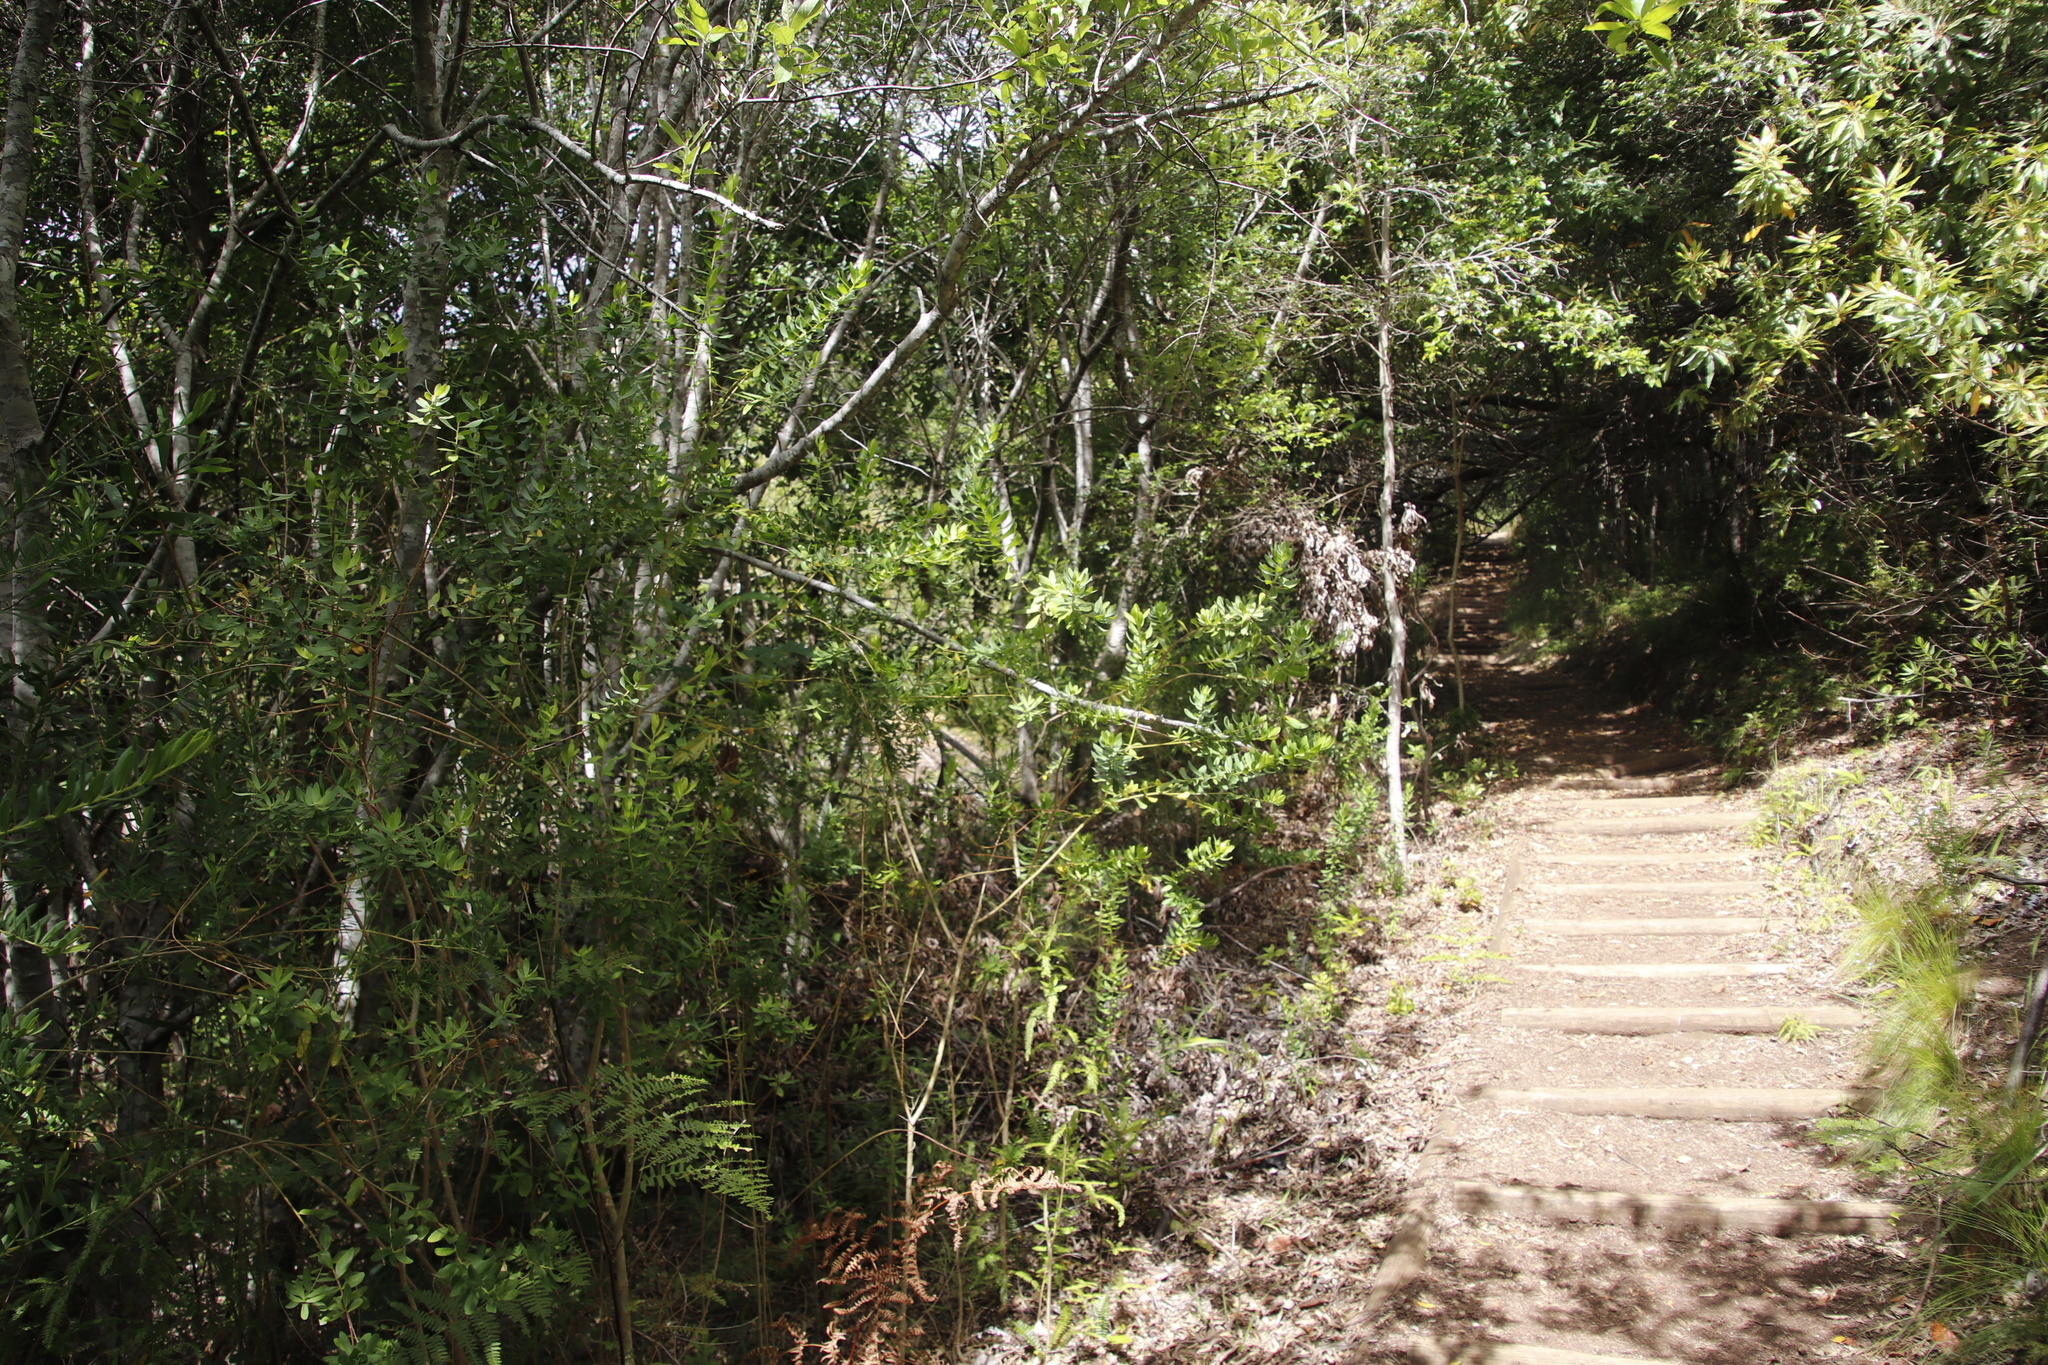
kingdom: Plantae
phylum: Tracheophyta
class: Magnoliopsida
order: Fabales
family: Polygalaceae
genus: Polygala
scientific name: Polygala myrtifolia
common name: Myrtle-leaf milkwort
